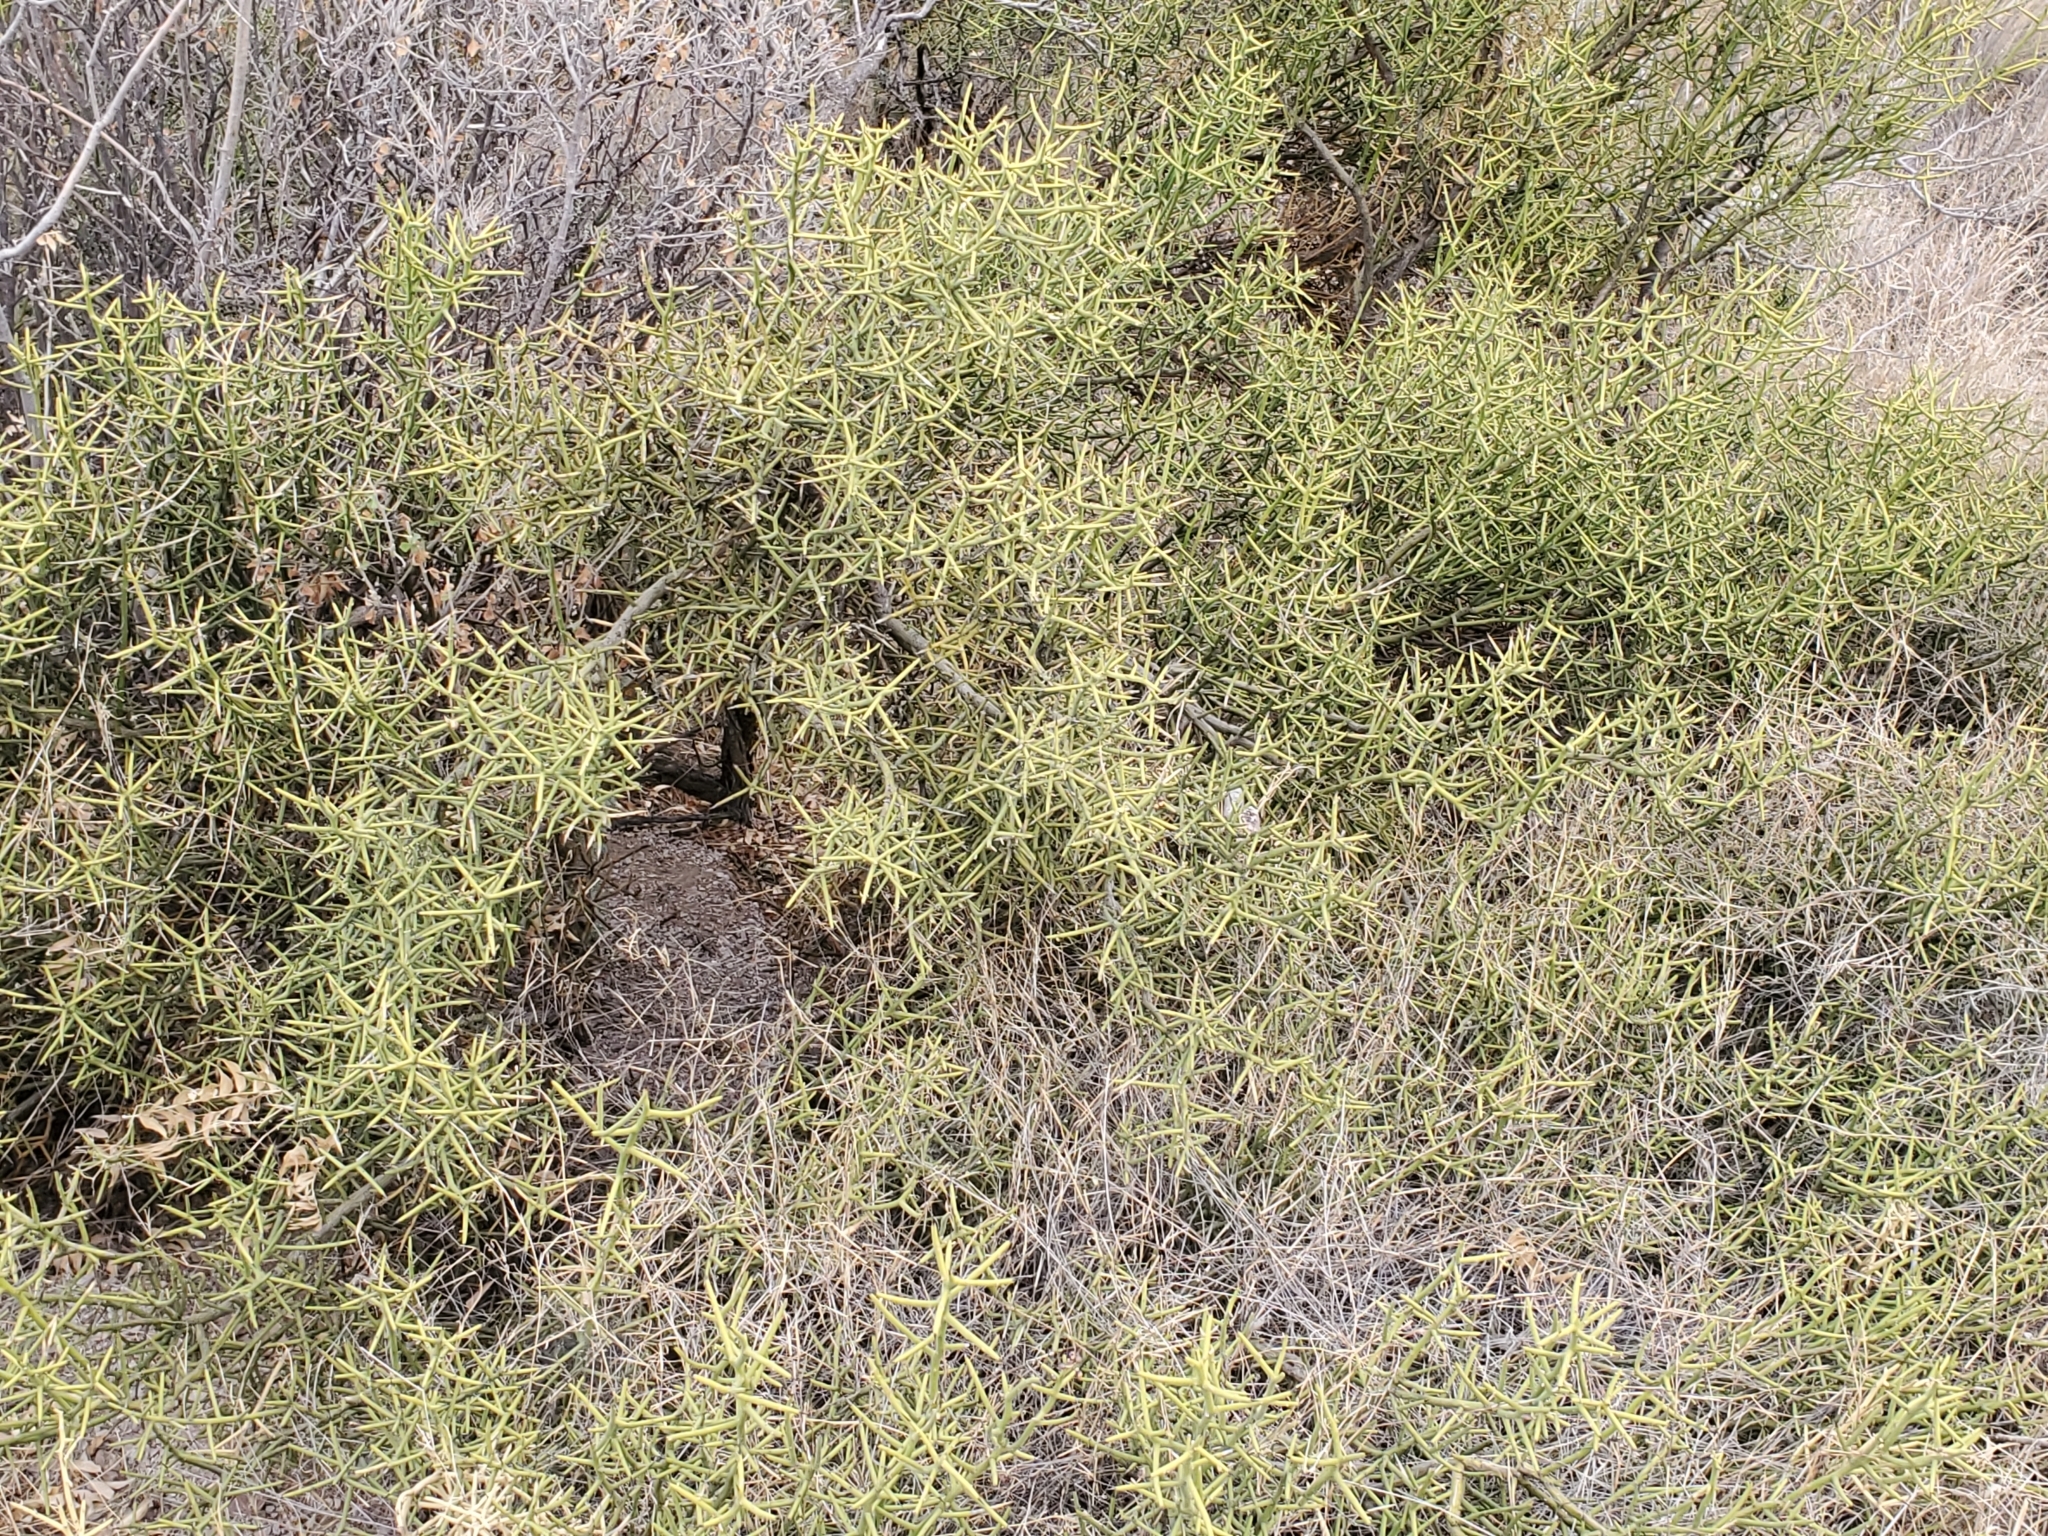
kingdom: Plantae
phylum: Tracheophyta
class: Magnoliopsida
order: Brassicales
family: Koeberliniaceae
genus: Koeberlinia
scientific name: Koeberlinia spinosa
